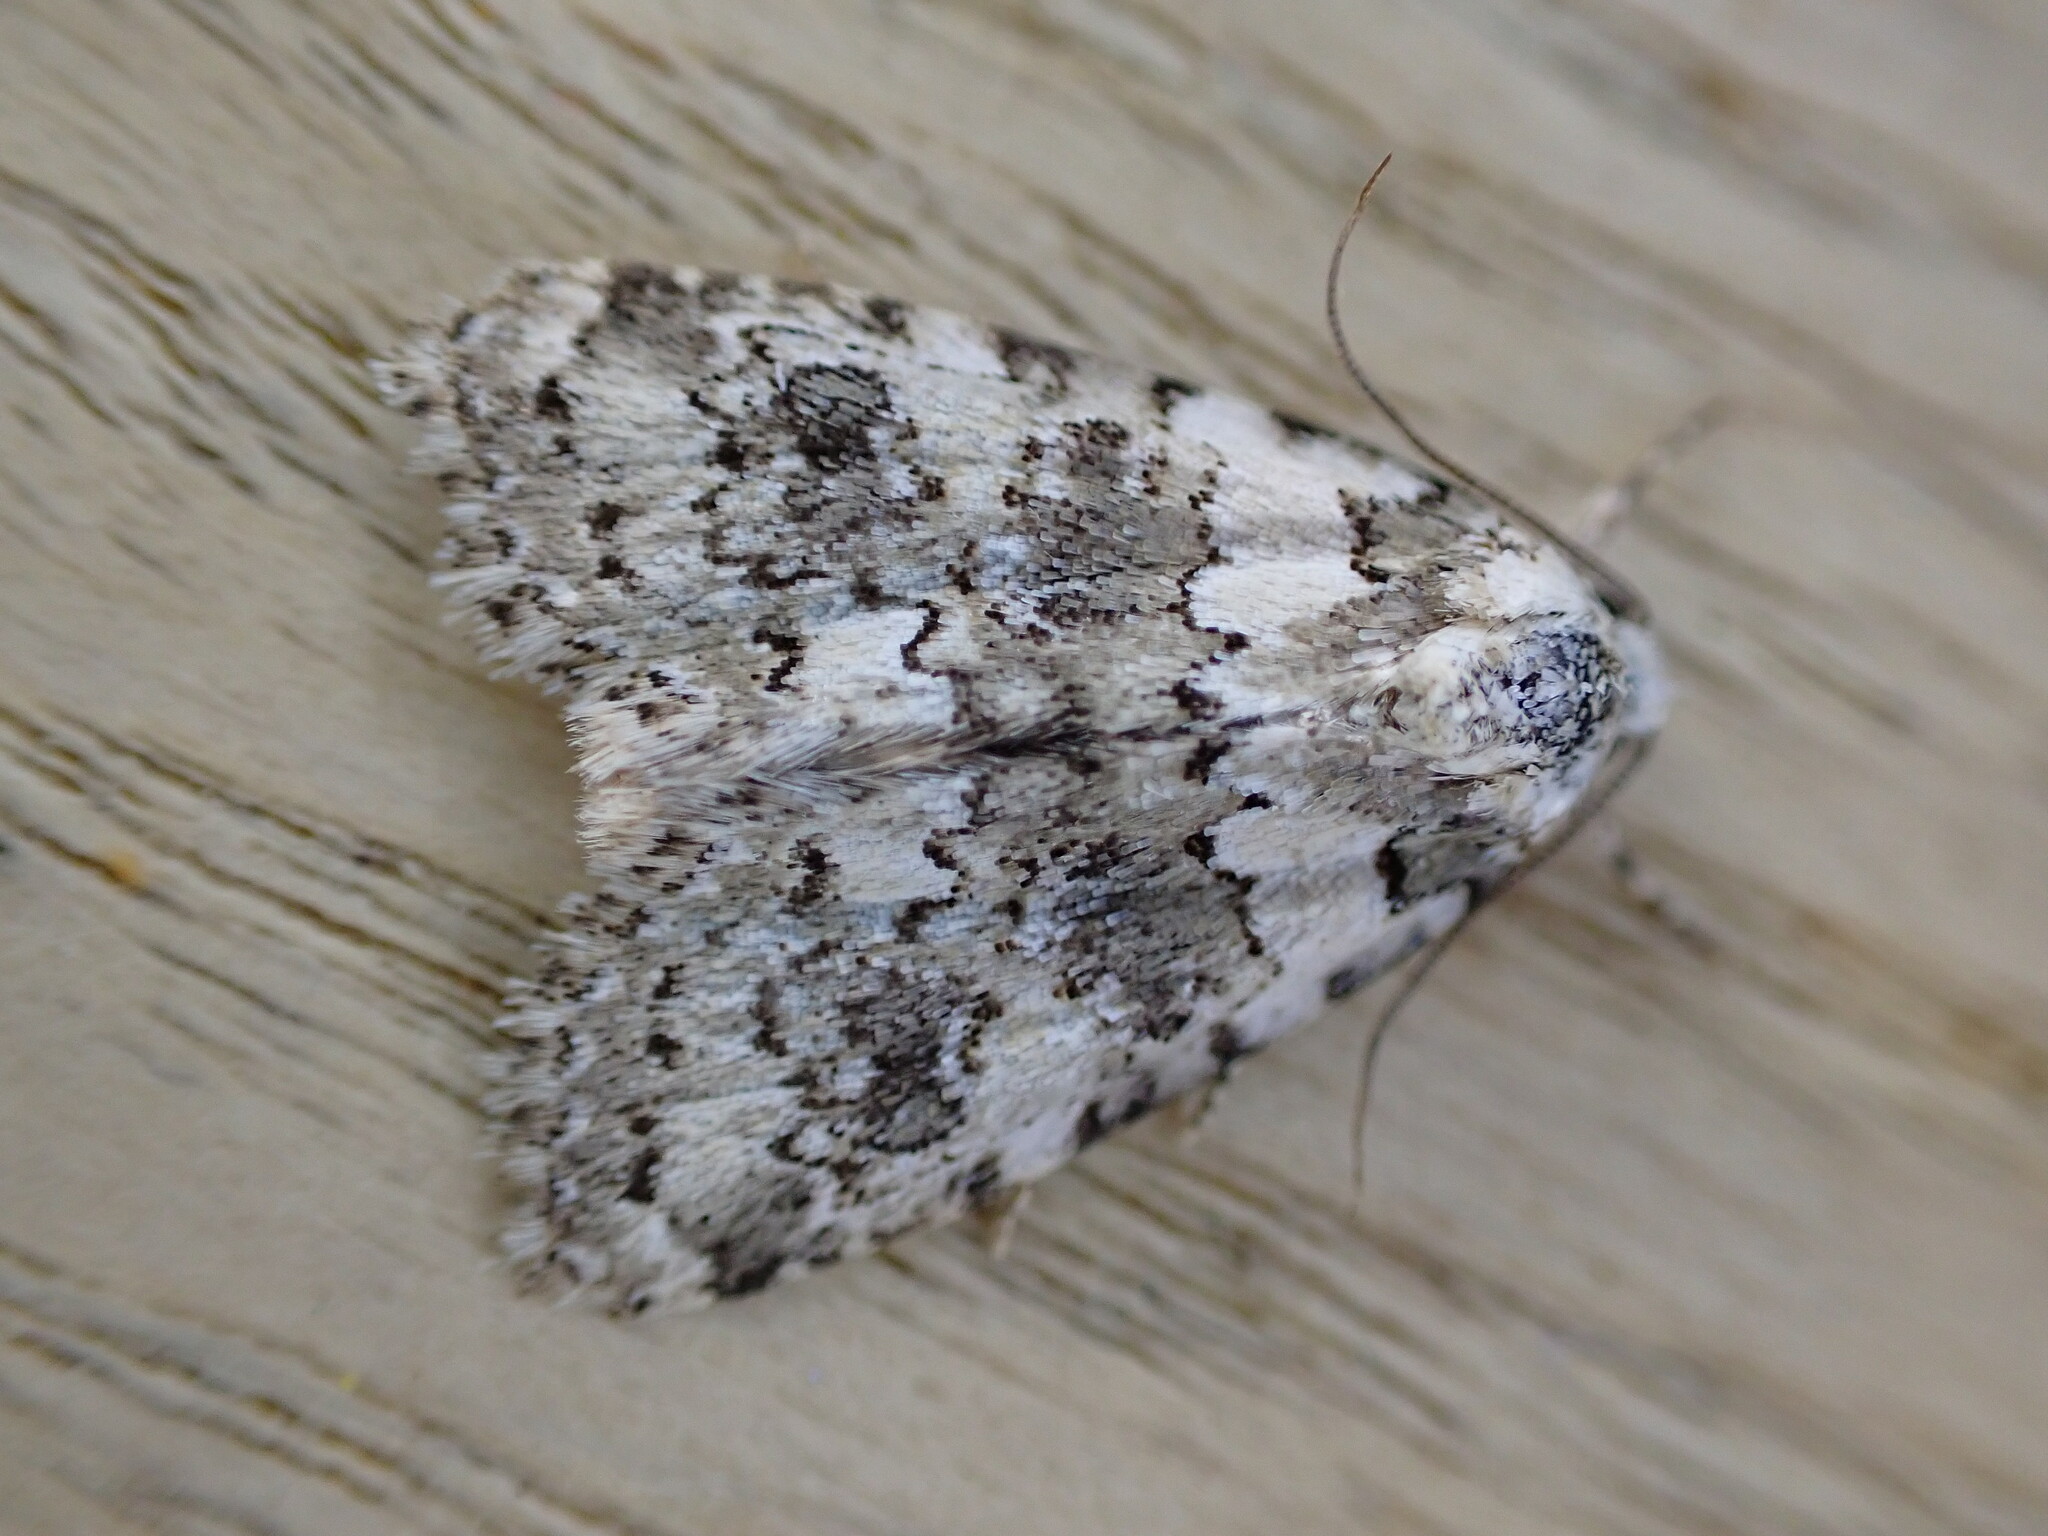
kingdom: Animalia
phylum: Arthropoda
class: Insecta
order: Lepidoptera
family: Noctuidae
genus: Bryophila
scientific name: Bryophila domestica
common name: Marbled beauty
